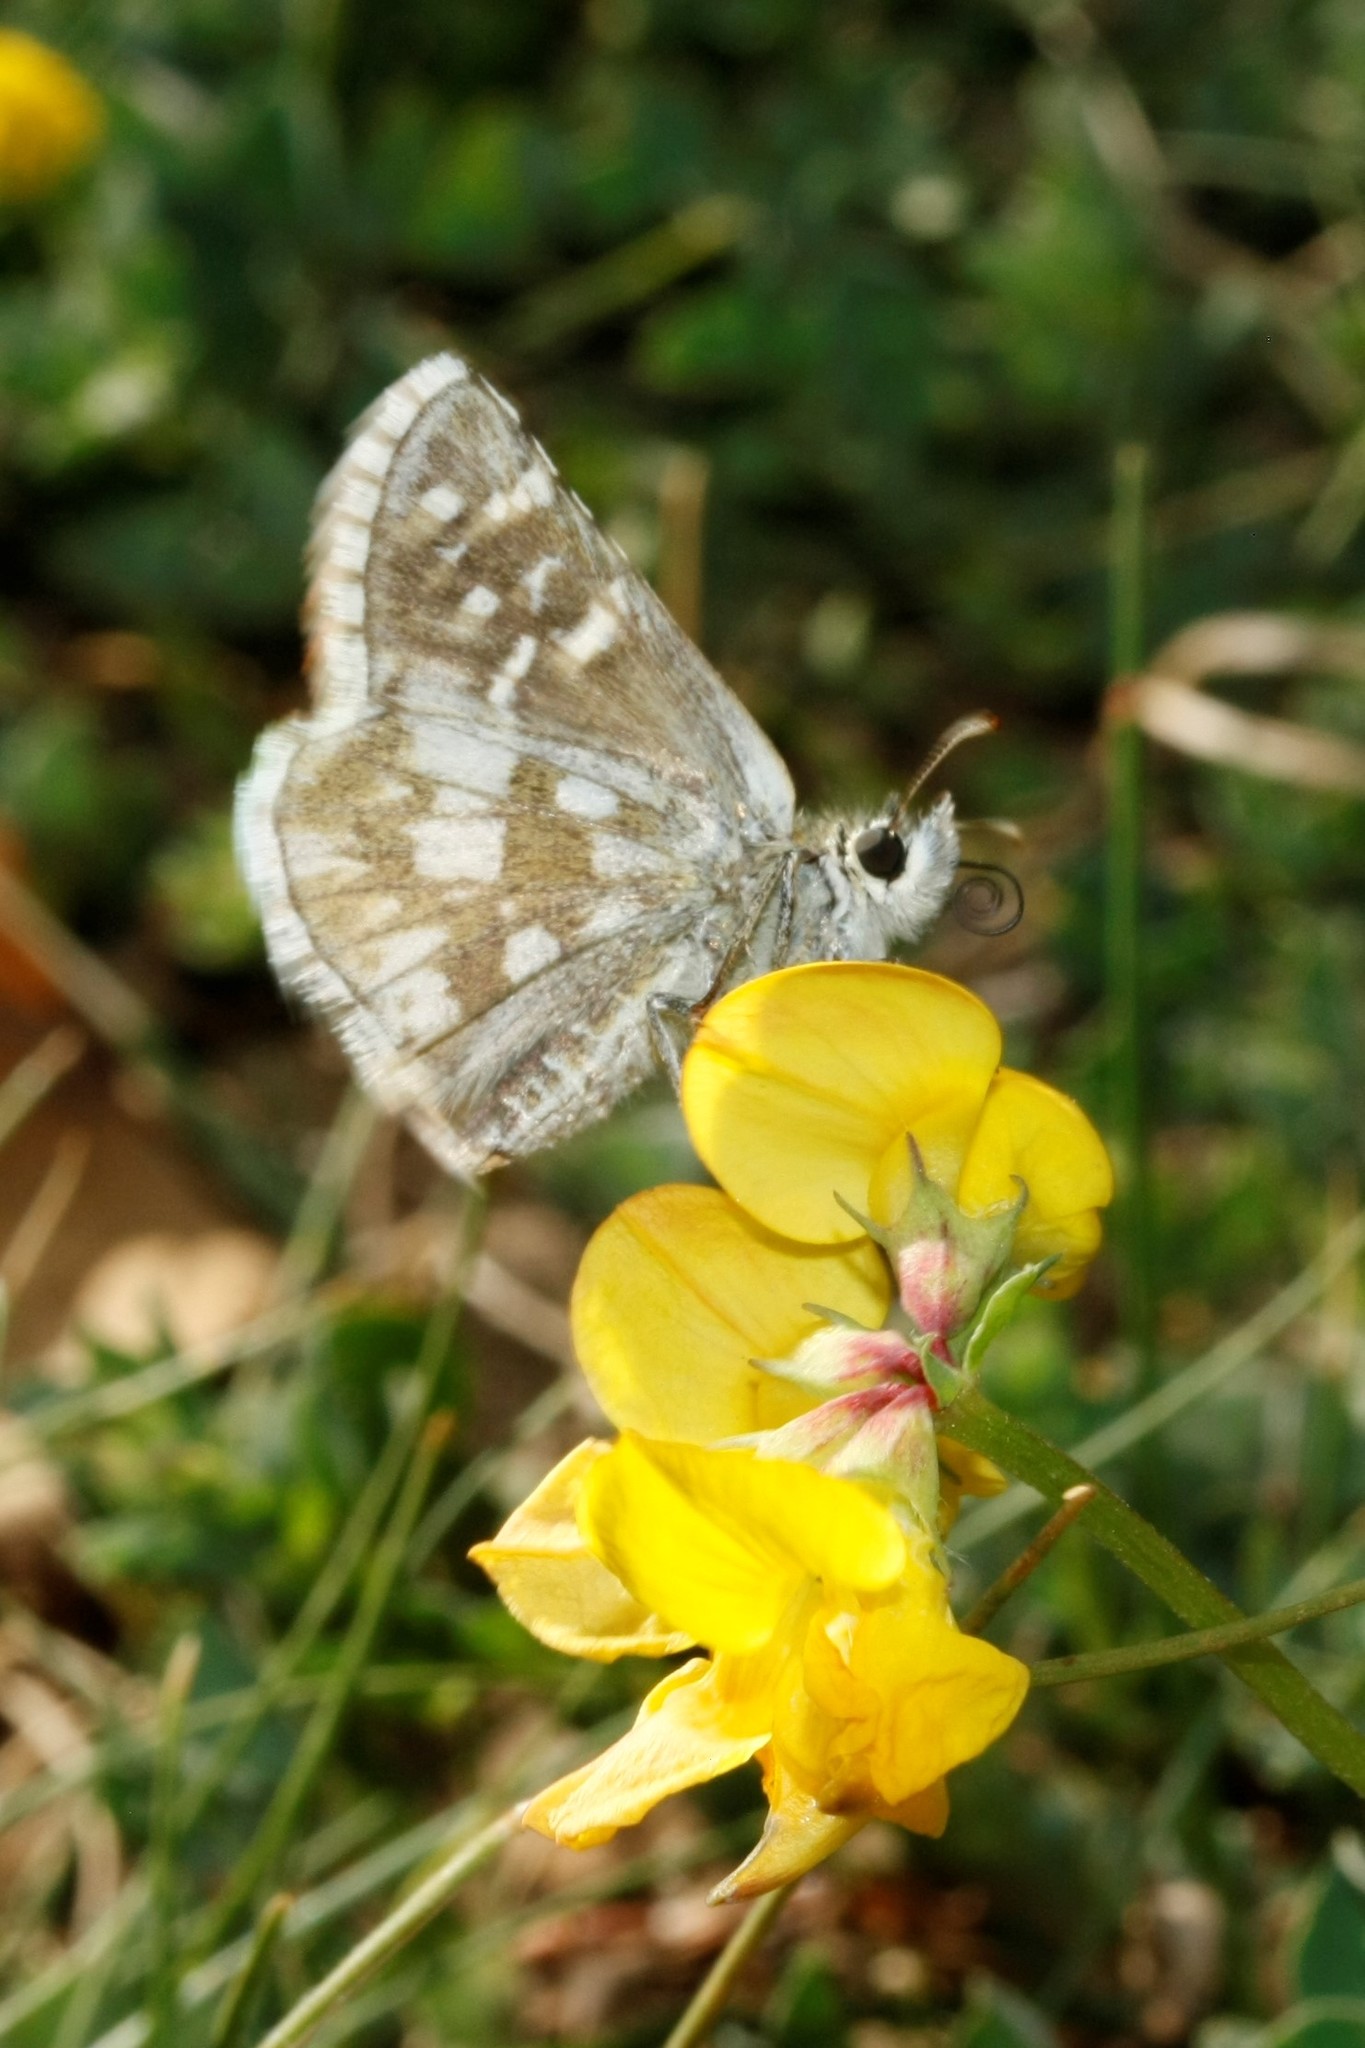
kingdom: Animalia
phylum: Arthropoda
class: Insecta
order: Lepidoptera
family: Hesperiidae
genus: Pyrgus
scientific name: Pyrgus serratulae
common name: Olive skipper
